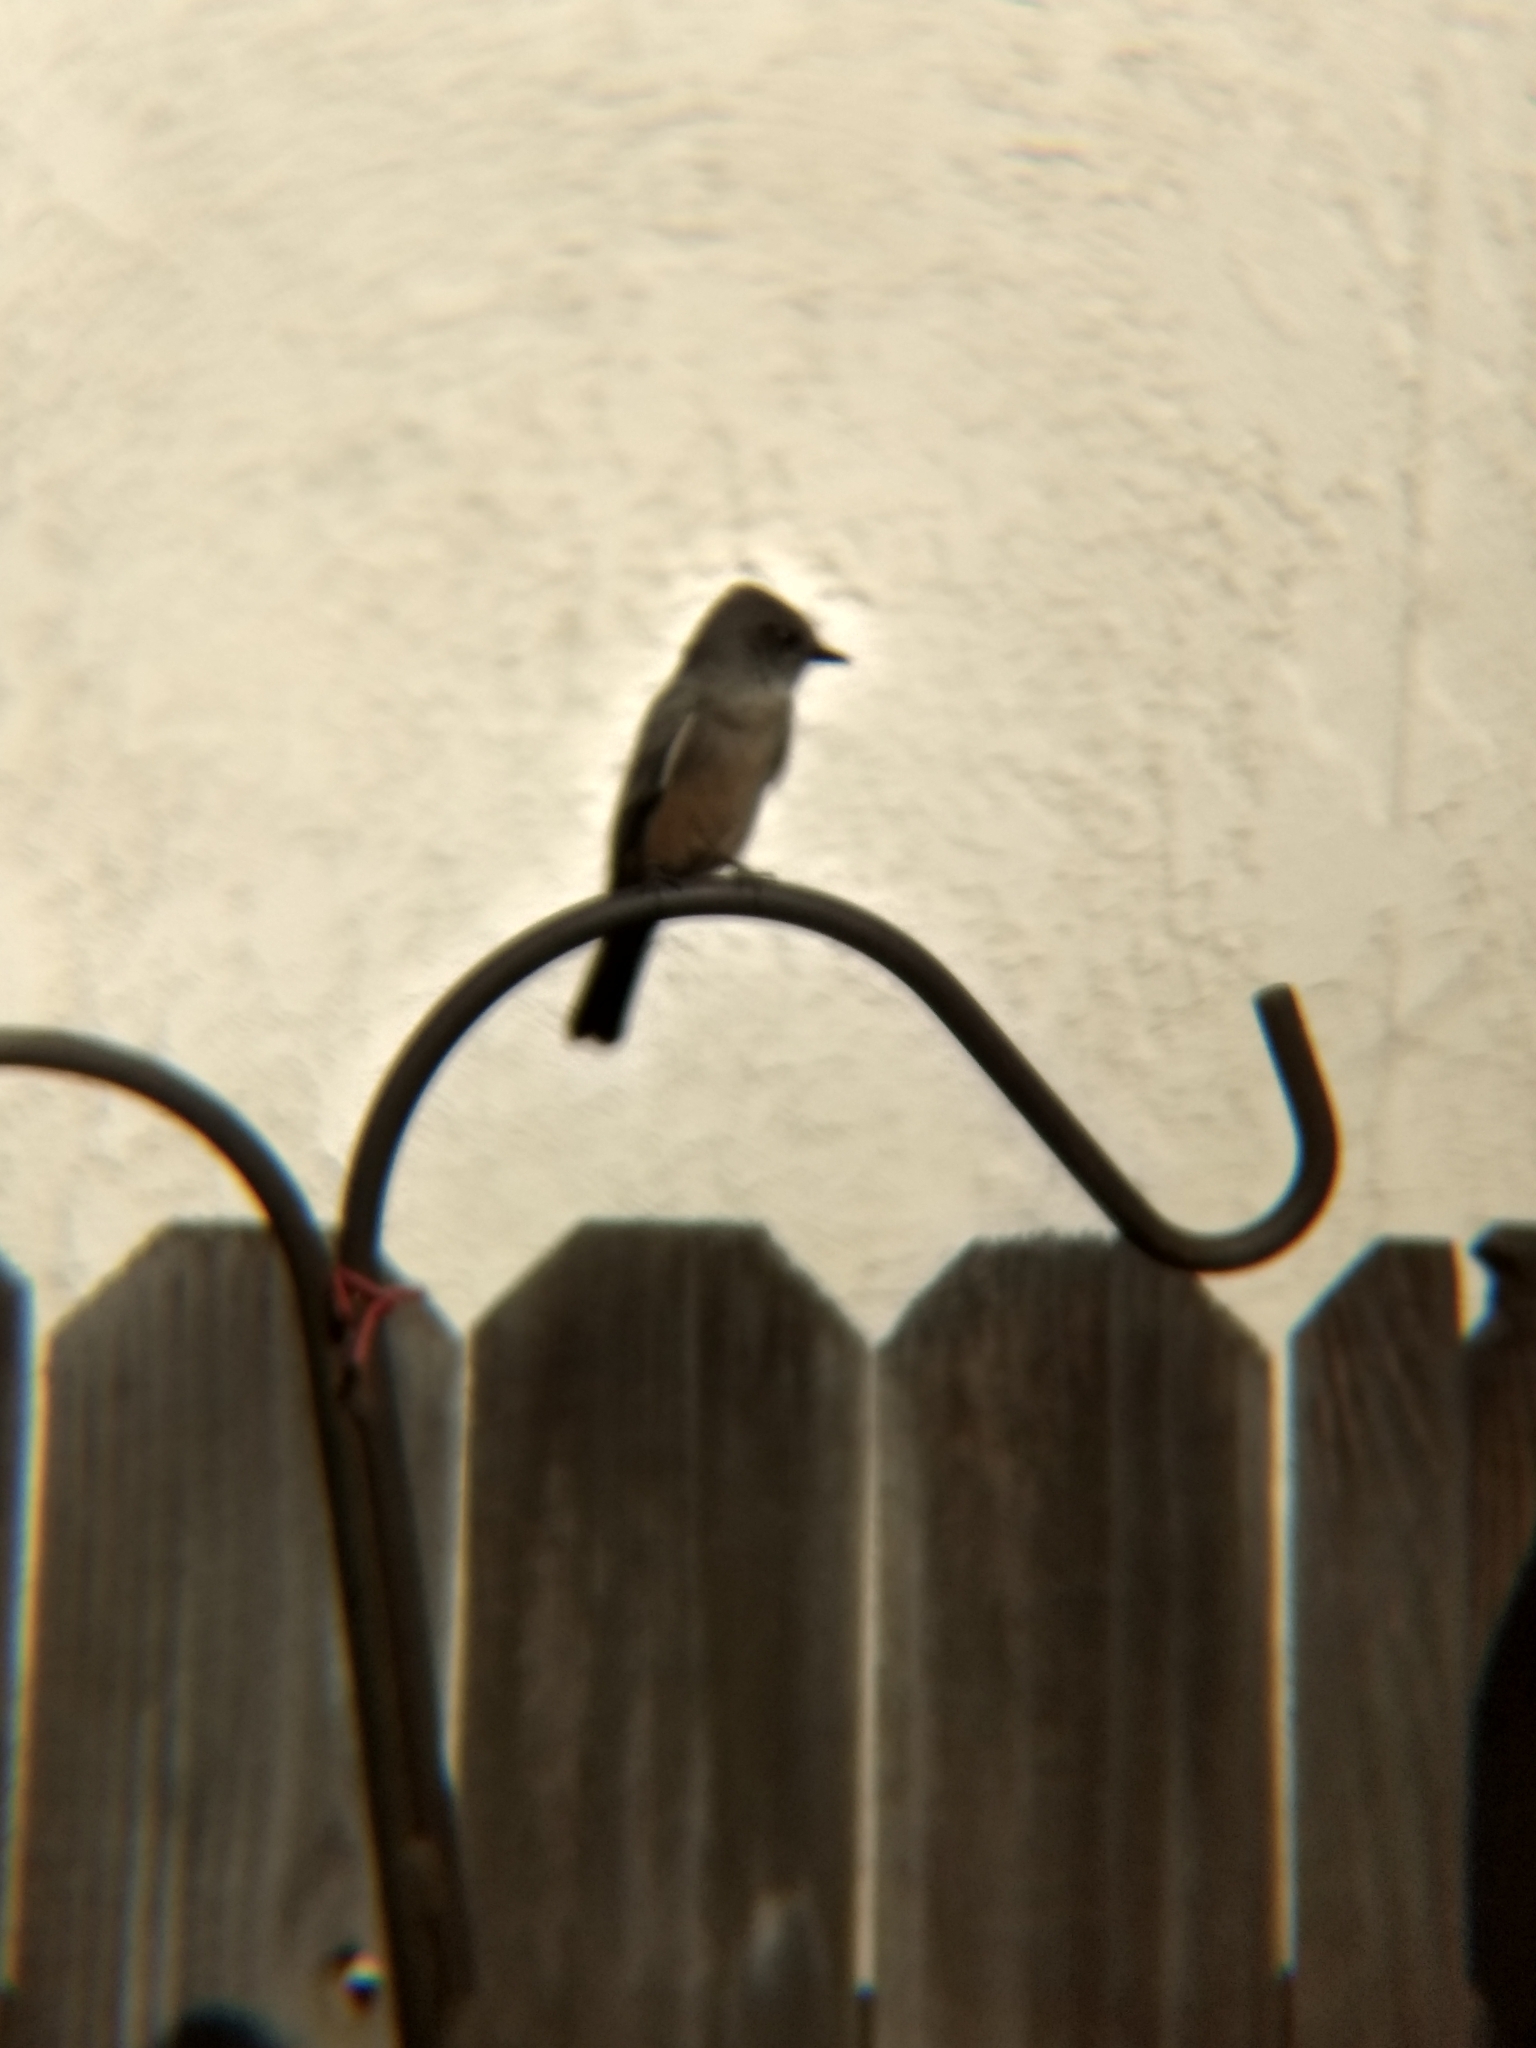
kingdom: Animalia
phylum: Chordata
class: Aves
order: Passeriformes
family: Tyrannidae
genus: Sayornis
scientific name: Sayornis saya
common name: Say's phoebe
